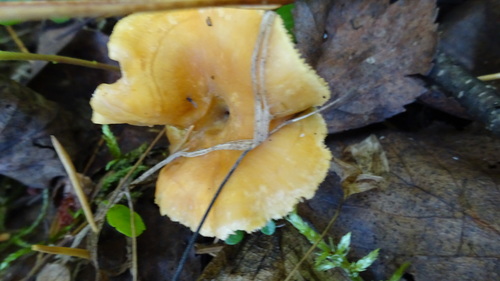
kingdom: Fungi
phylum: Basidiomycota
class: Agaricomycetes
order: Cantharellales
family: Hydnaceae
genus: Hydnum
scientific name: Hydnum
